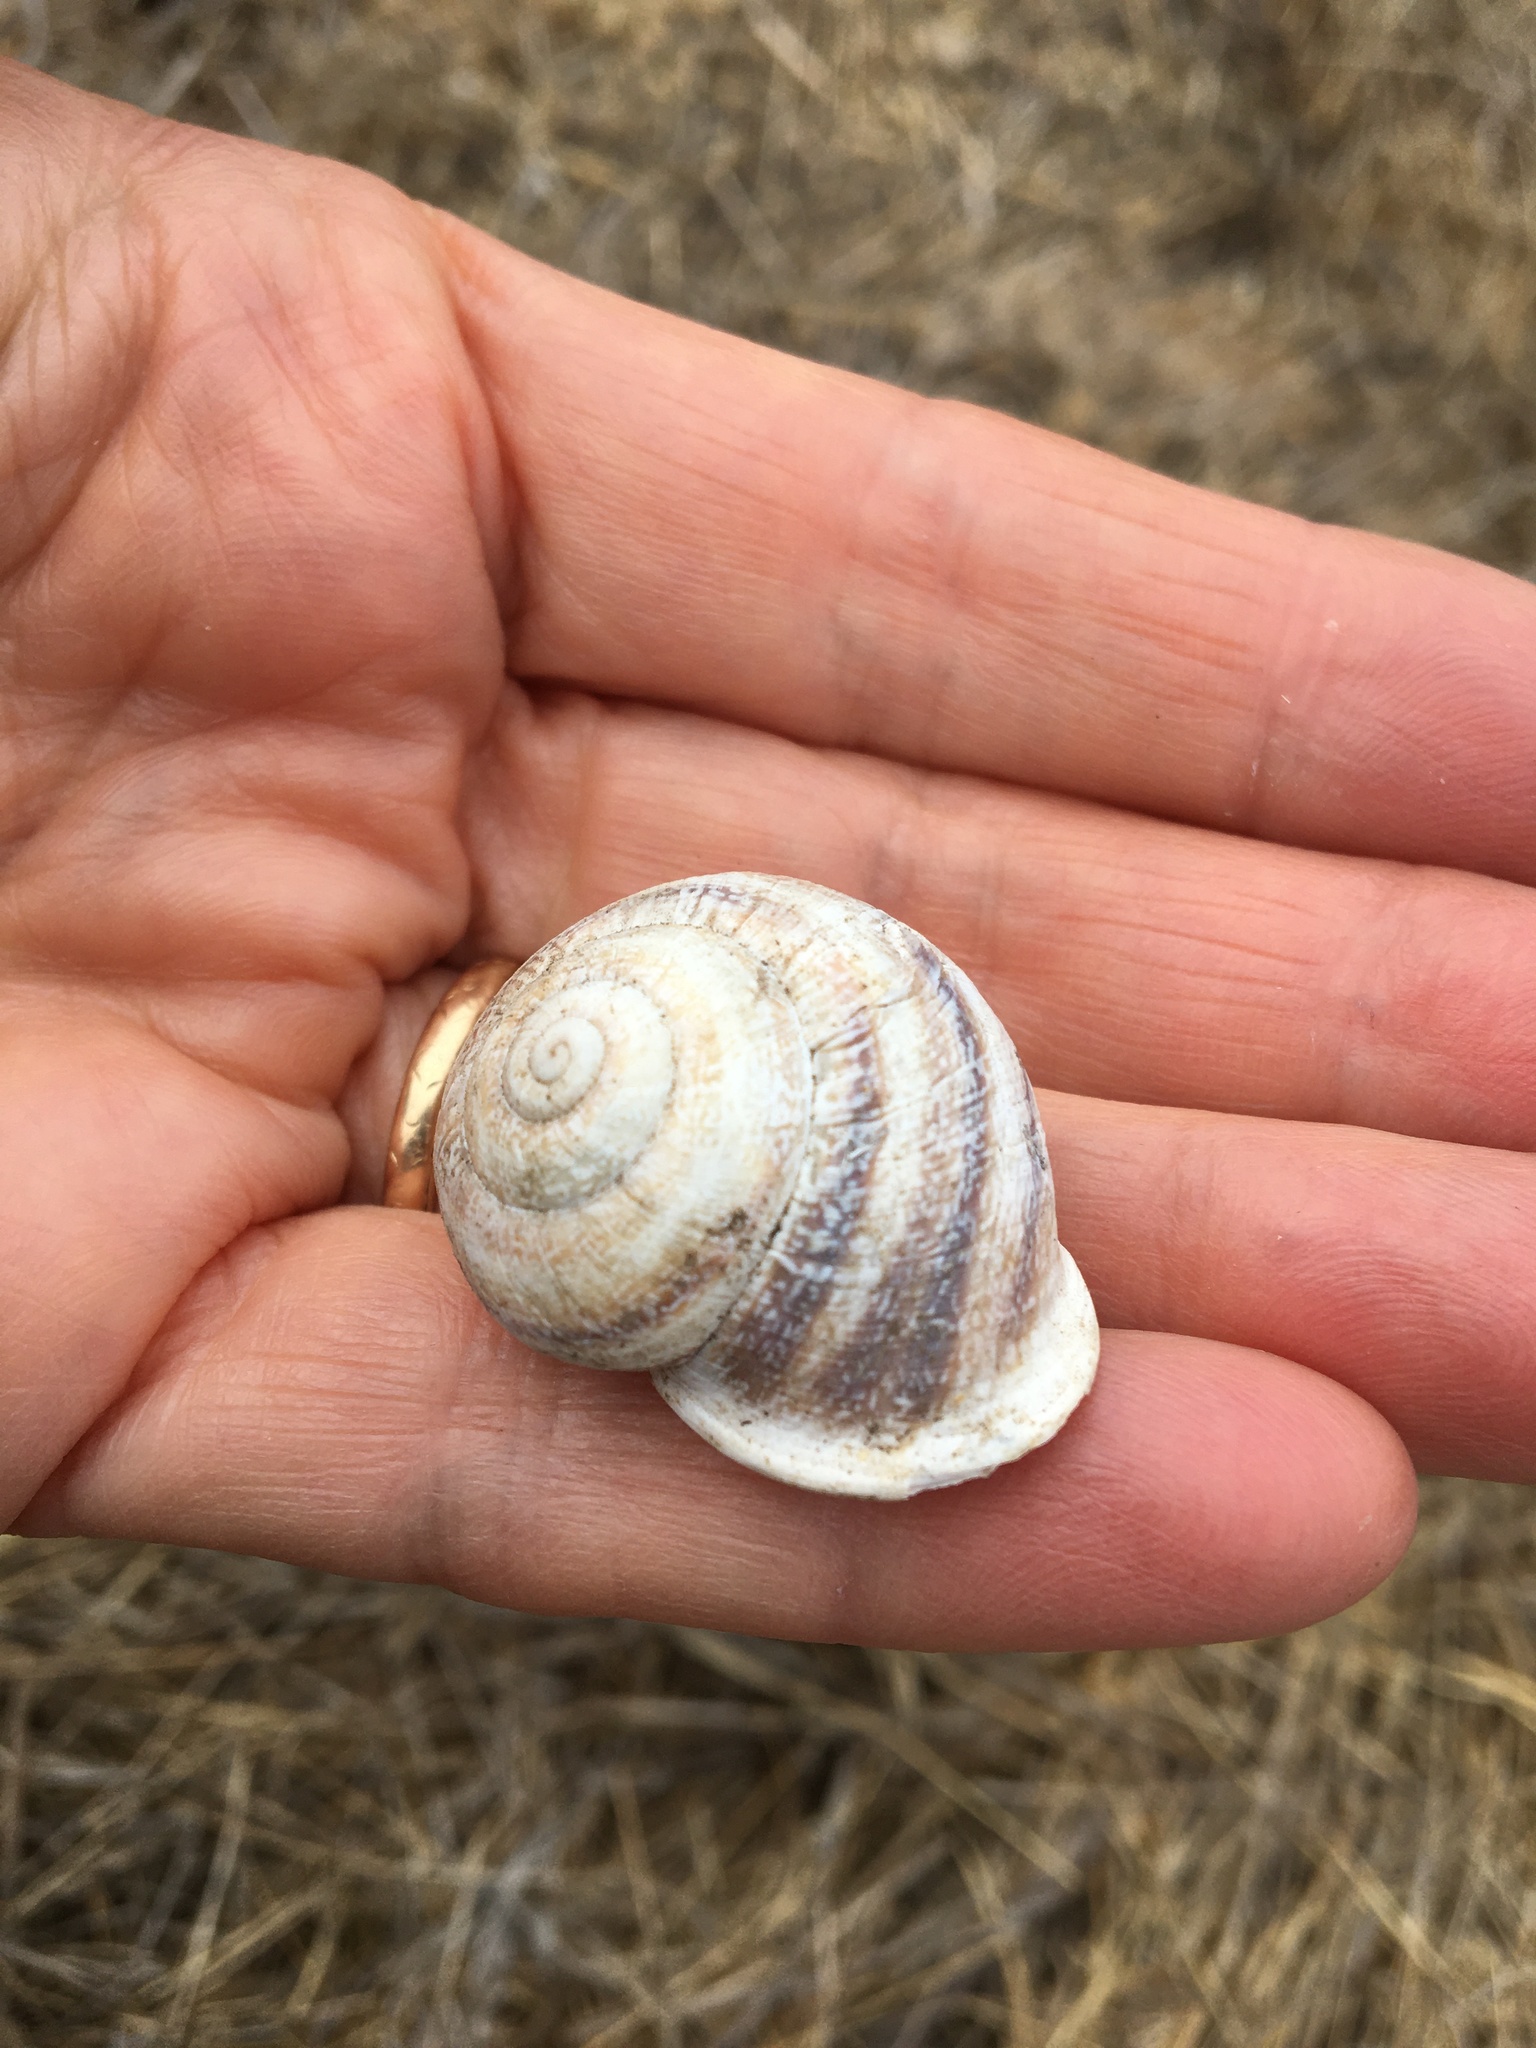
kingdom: Animalia
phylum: Mollusca
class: Gastropoda
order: Stylommatophora
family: Helicidae
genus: Otala
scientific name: Otala lactea
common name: Milk snail
